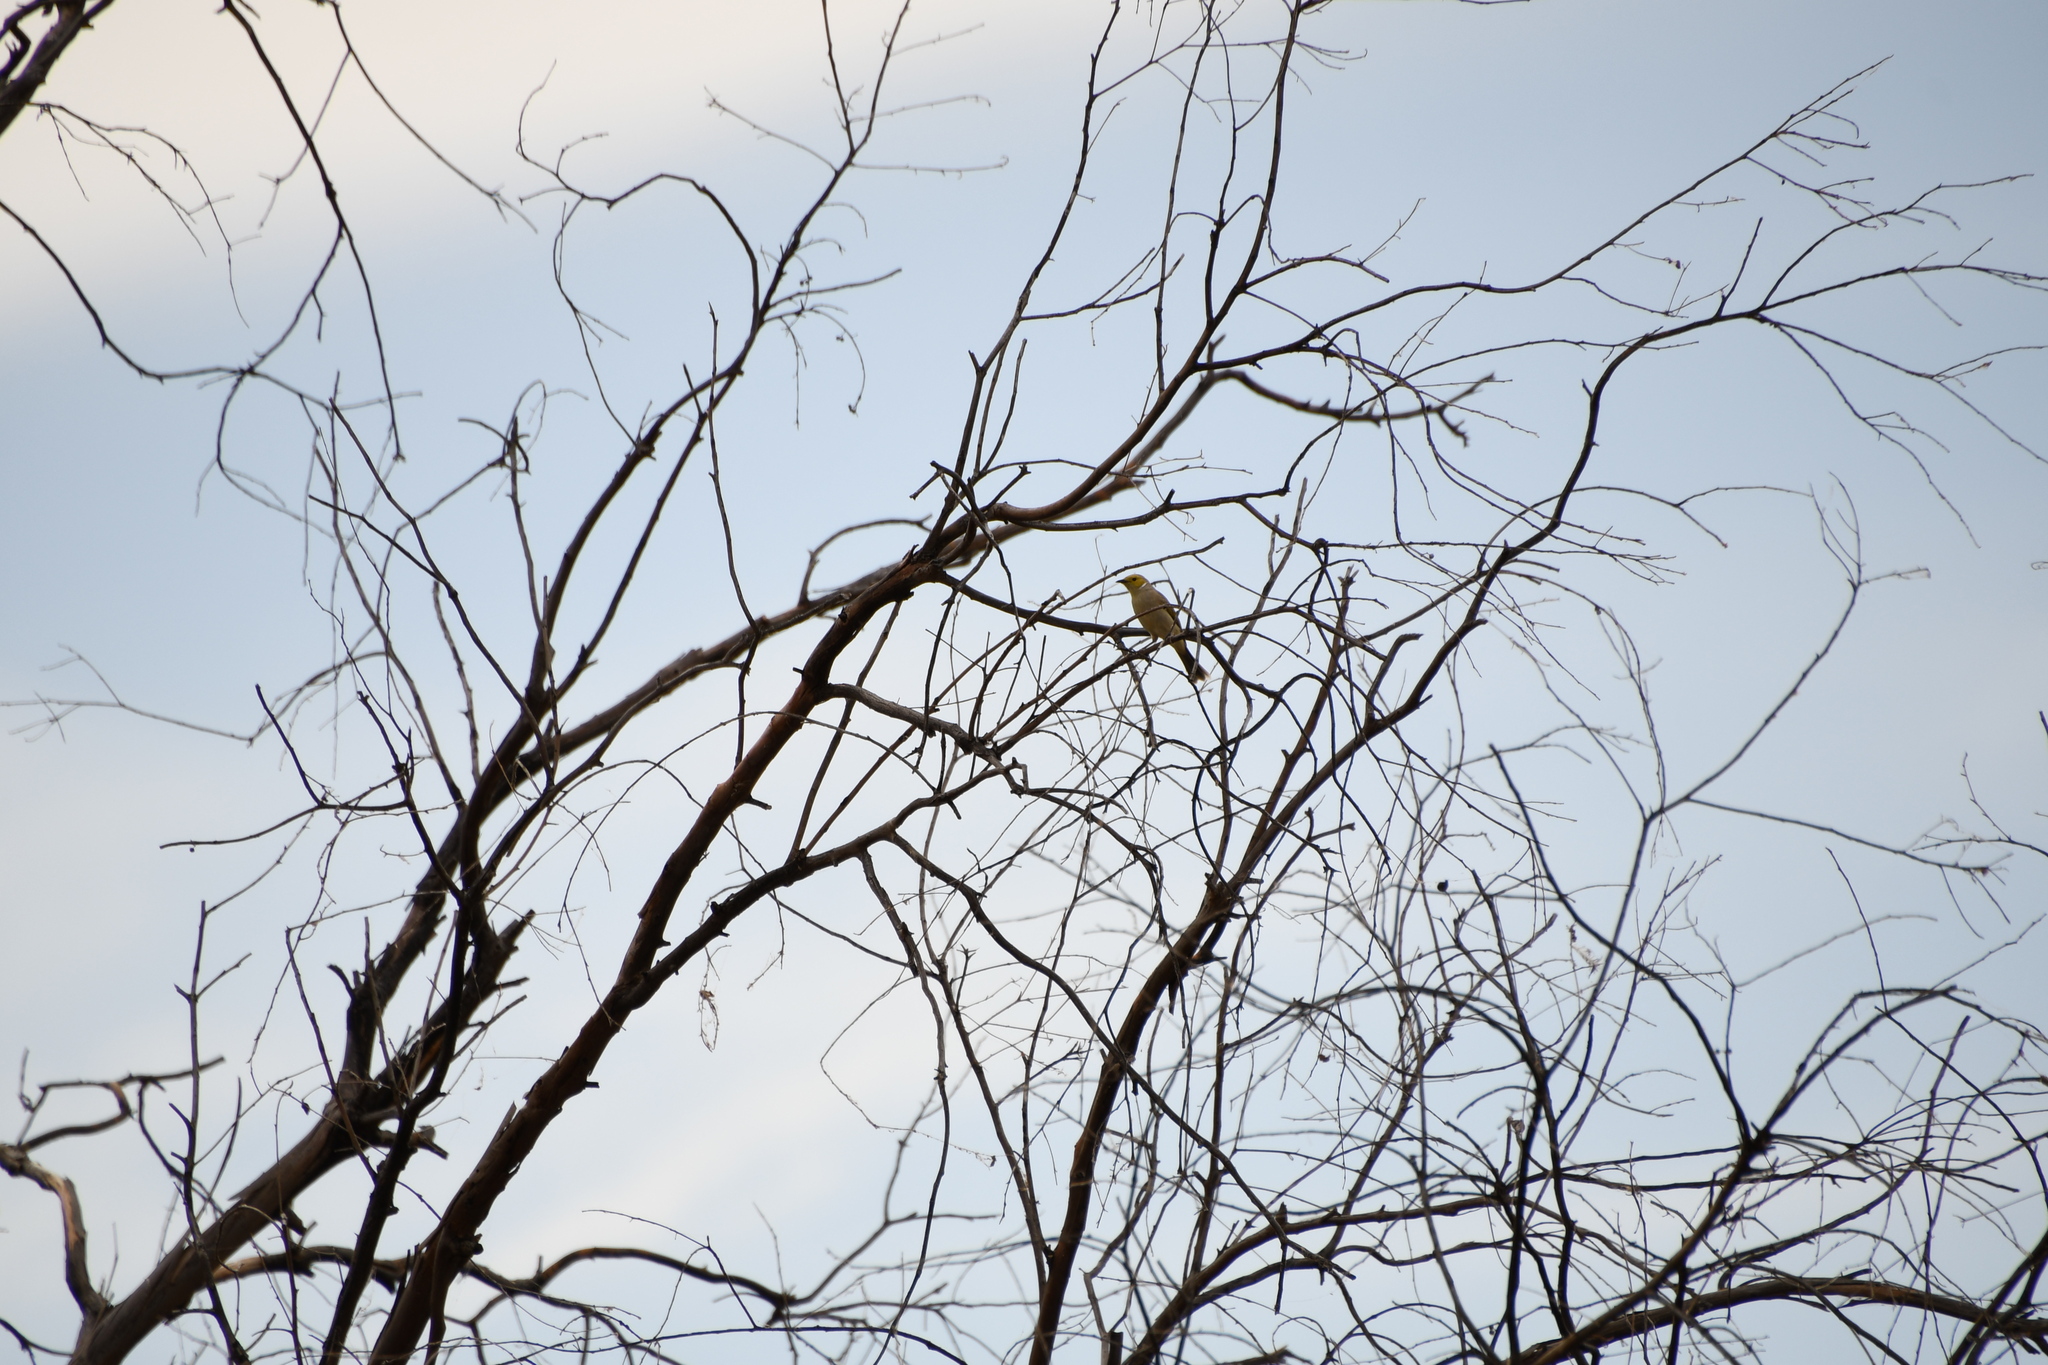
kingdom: Animalia
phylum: Chordata
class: Aves
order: Passeriformes
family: Meliphagidae
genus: Ptilotula
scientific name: Ptilotula penicillata
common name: White-plumed honeyeater
